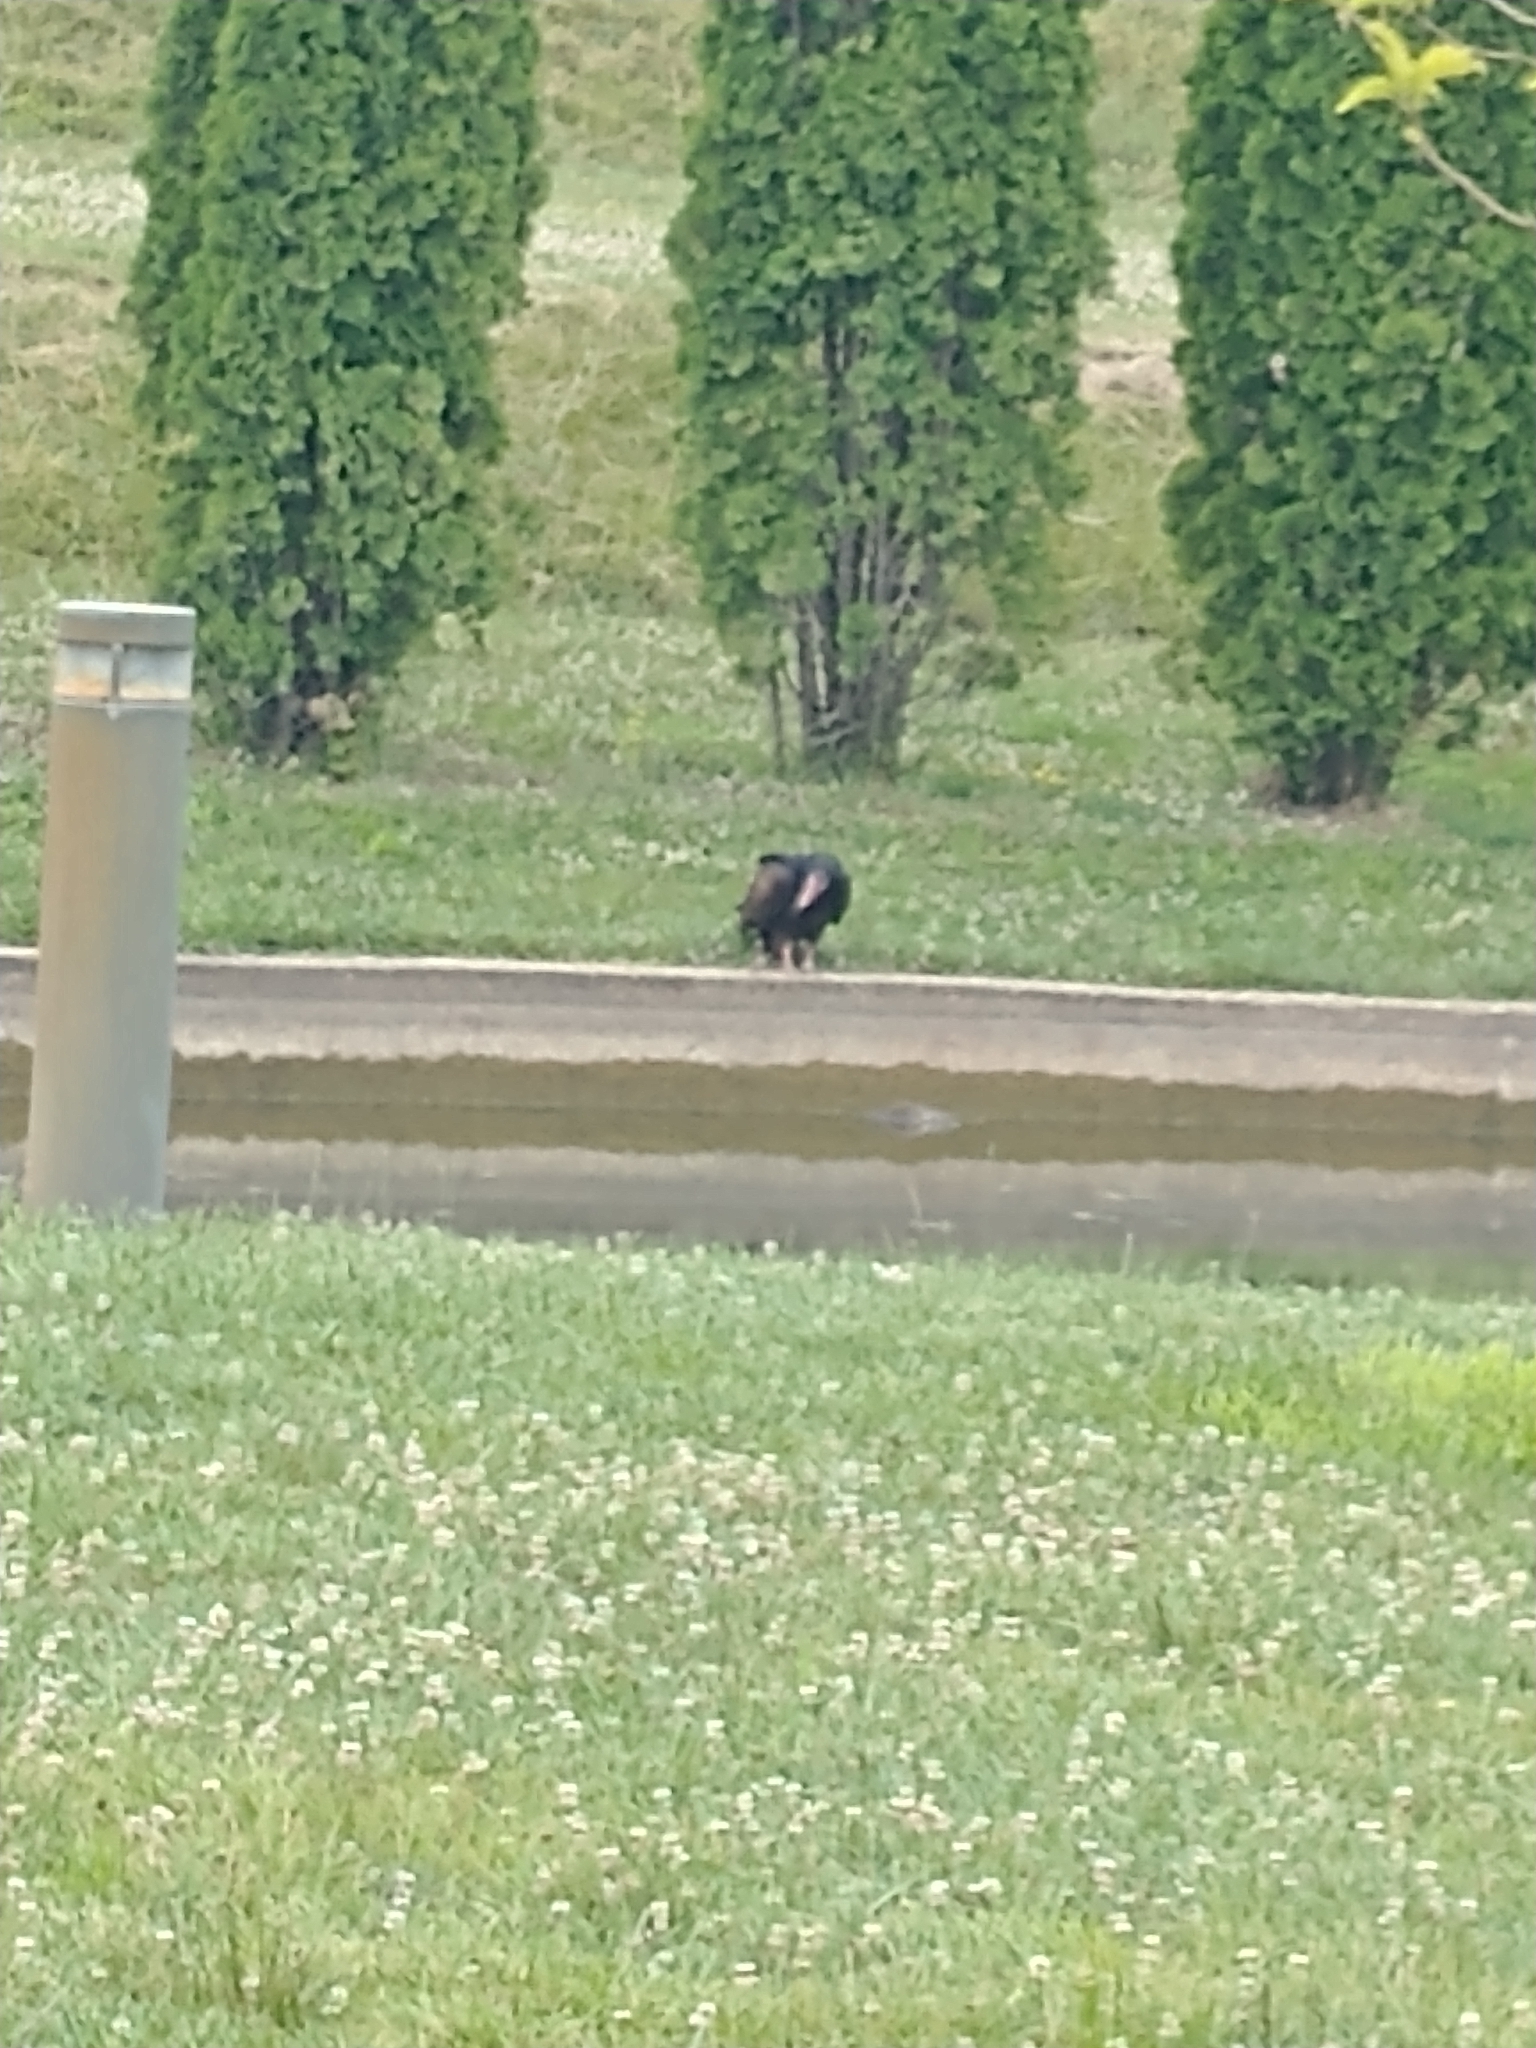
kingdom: Animalia
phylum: Chordata
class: Aves
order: Accipitriformes
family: Cathartidae
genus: Cathartes
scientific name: Cathartes aura
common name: Turkey vulture
